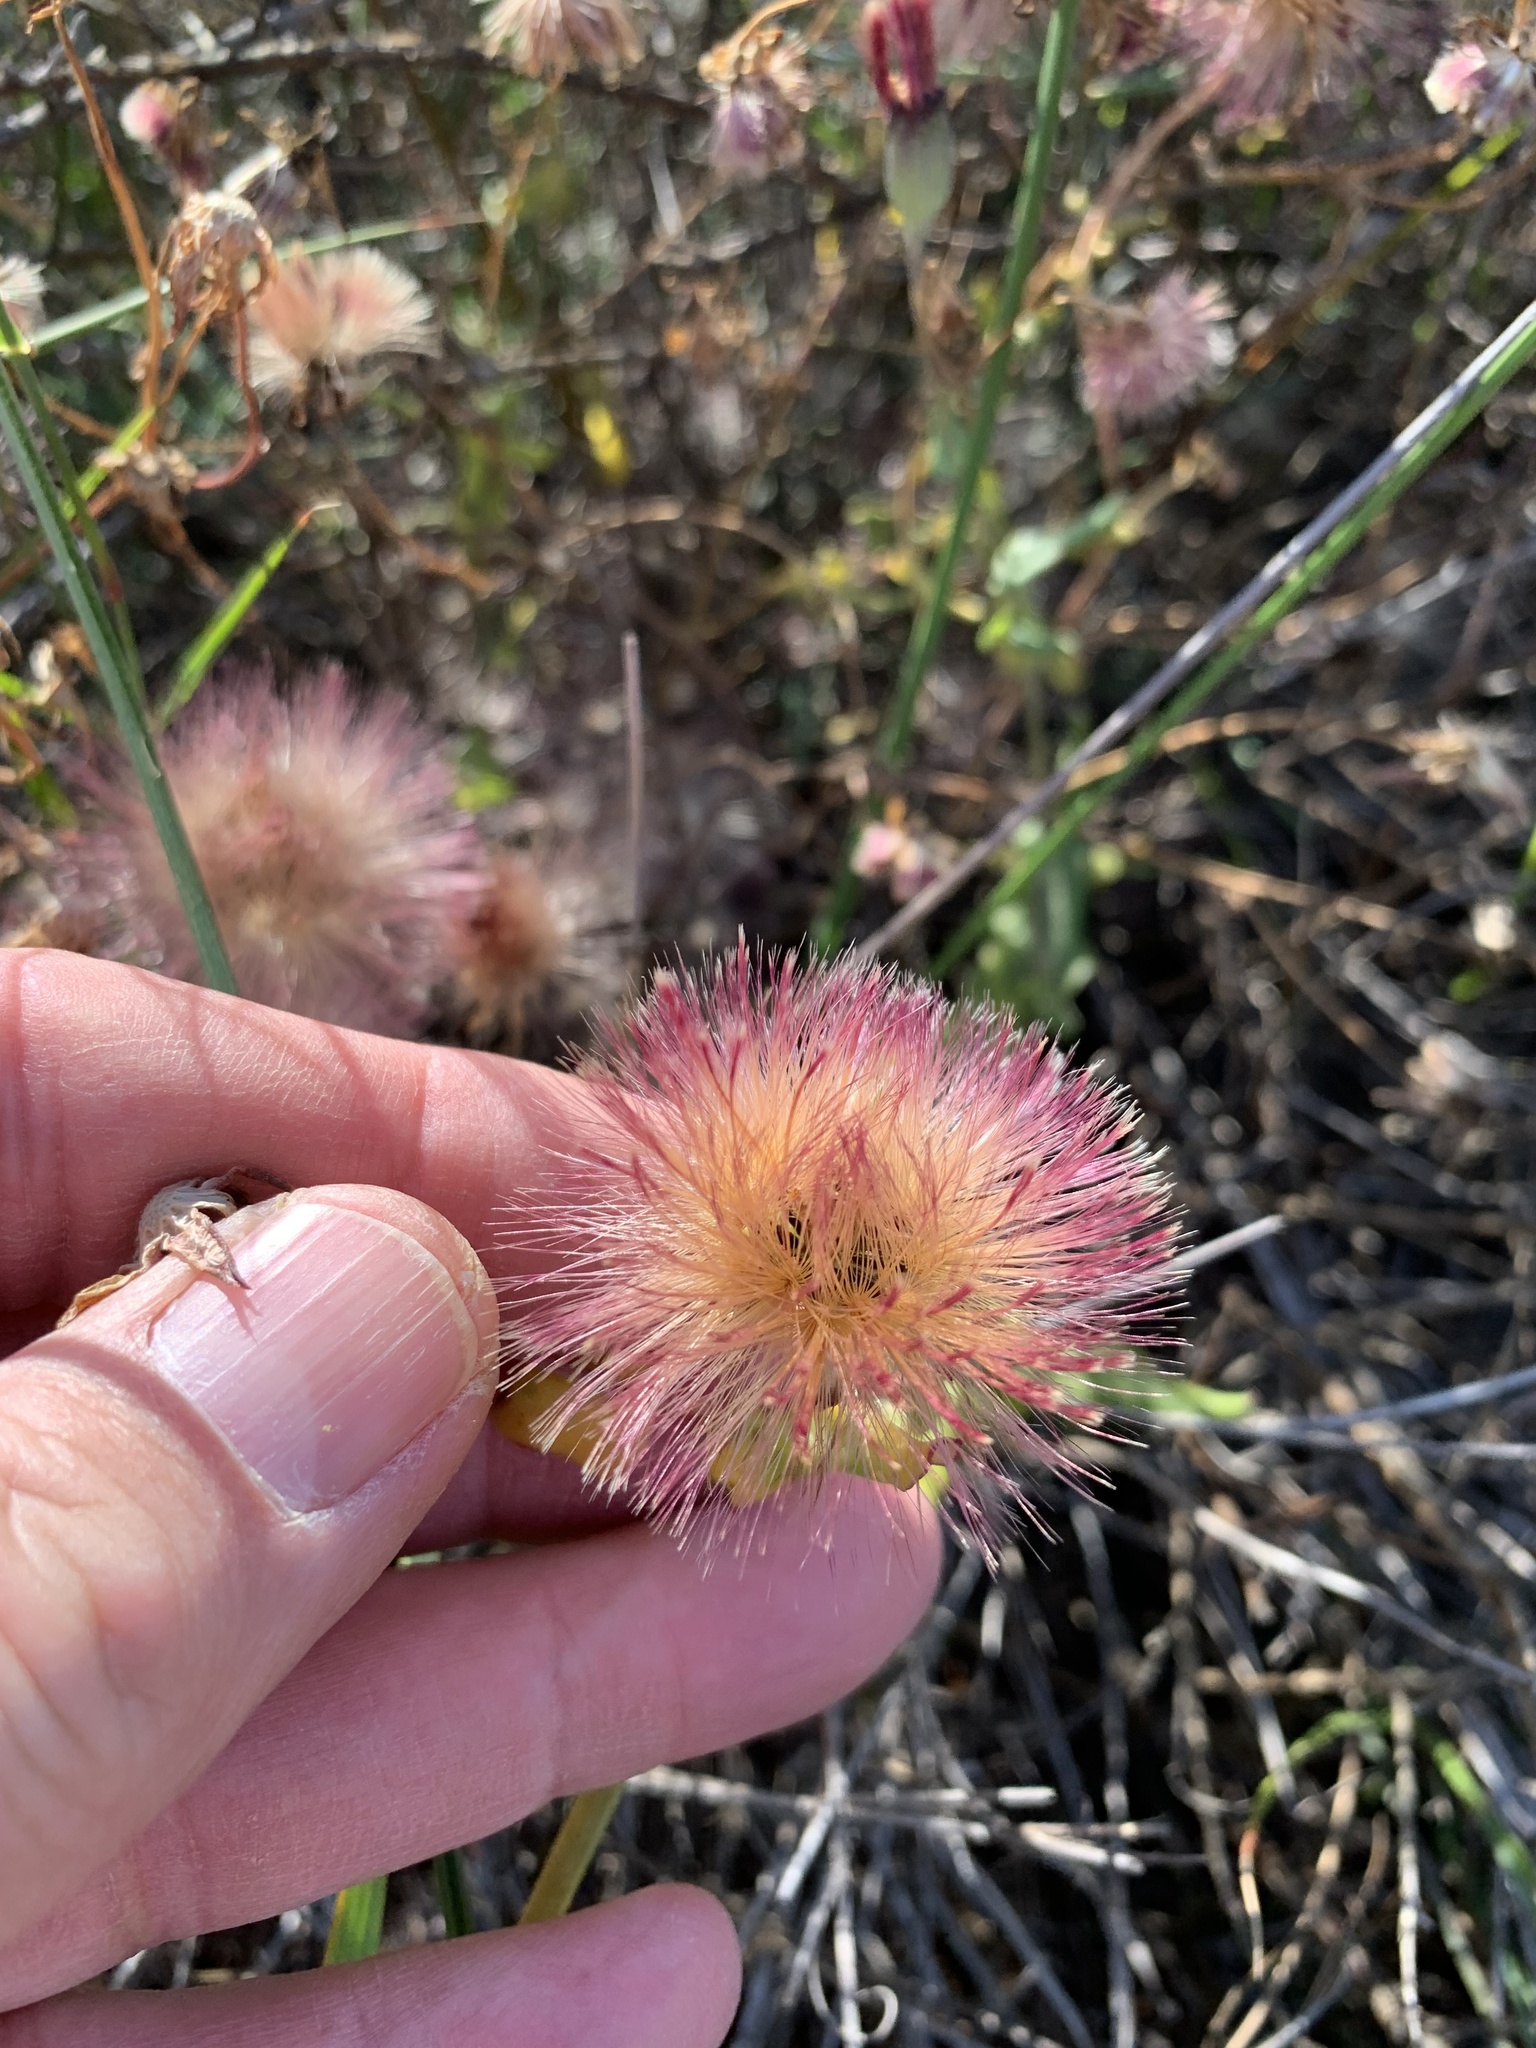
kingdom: Plantae
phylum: Tracheophyta
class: Magnoliopsida
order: Asterales
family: Asteraceae
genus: Othonna
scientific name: Othonna undulosa
